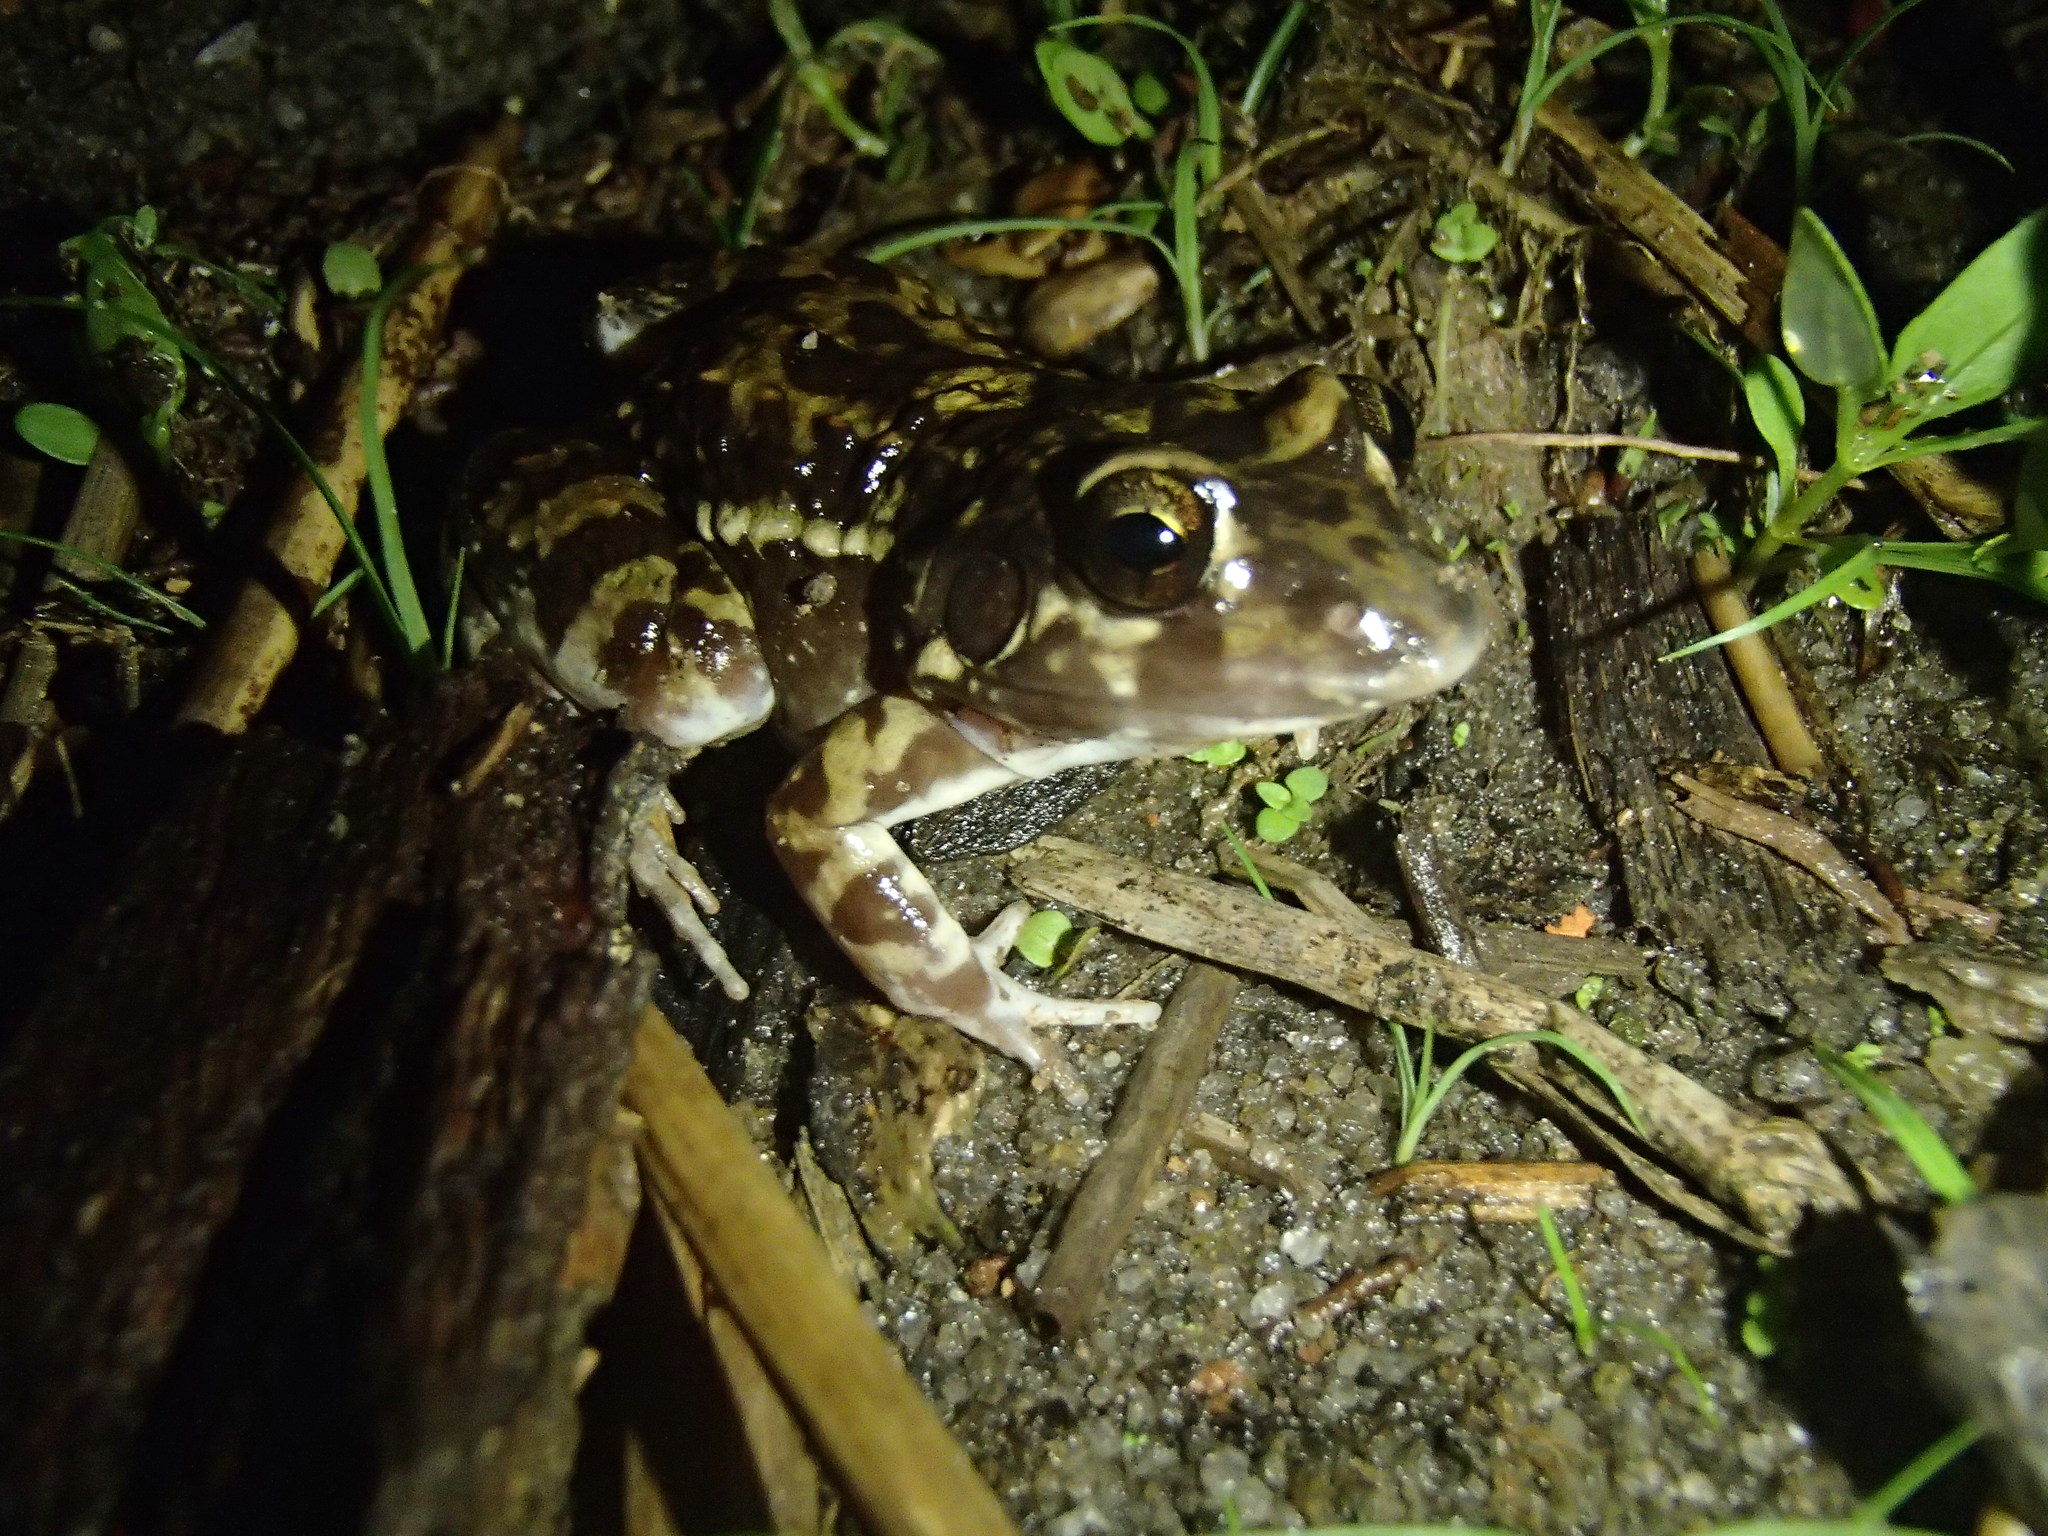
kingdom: Animalia
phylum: Chordata
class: Amphibia
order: Anura
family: Leptodactylidae
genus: Leptodactylus
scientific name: Leptodactylus troglodytes
